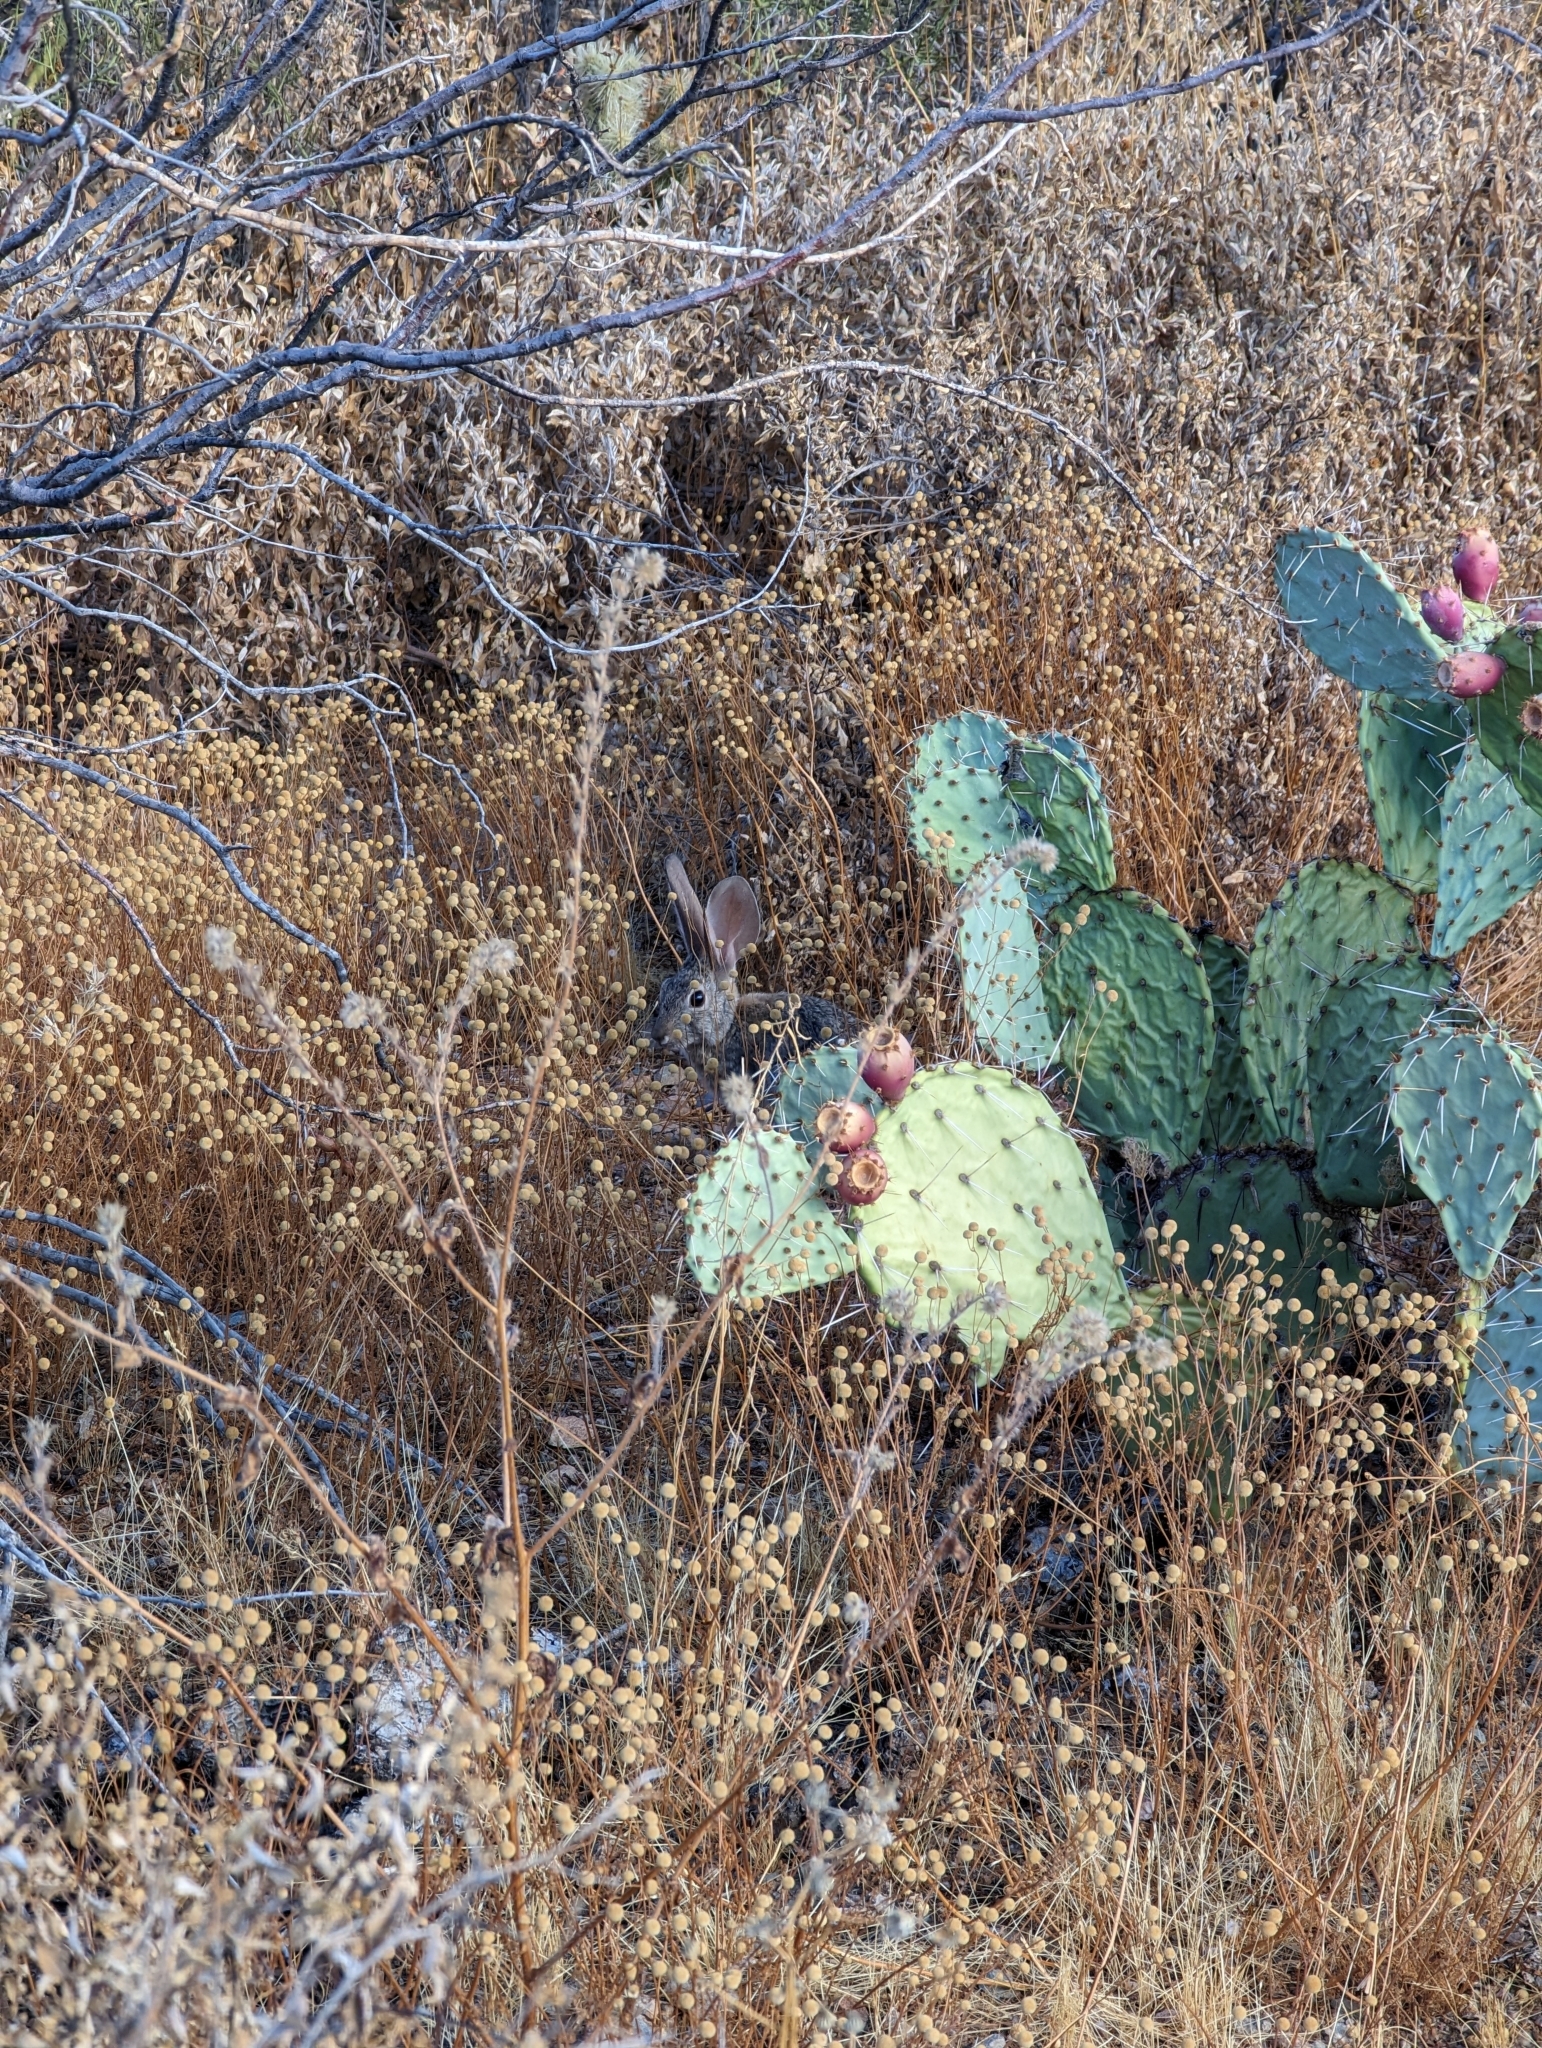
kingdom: Animalia
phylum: Chordata
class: Mammalia
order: Lagomorpha
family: Leporidae
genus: Sylvilagus
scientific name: Sylvilagus audubonii
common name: Desert cottontail
